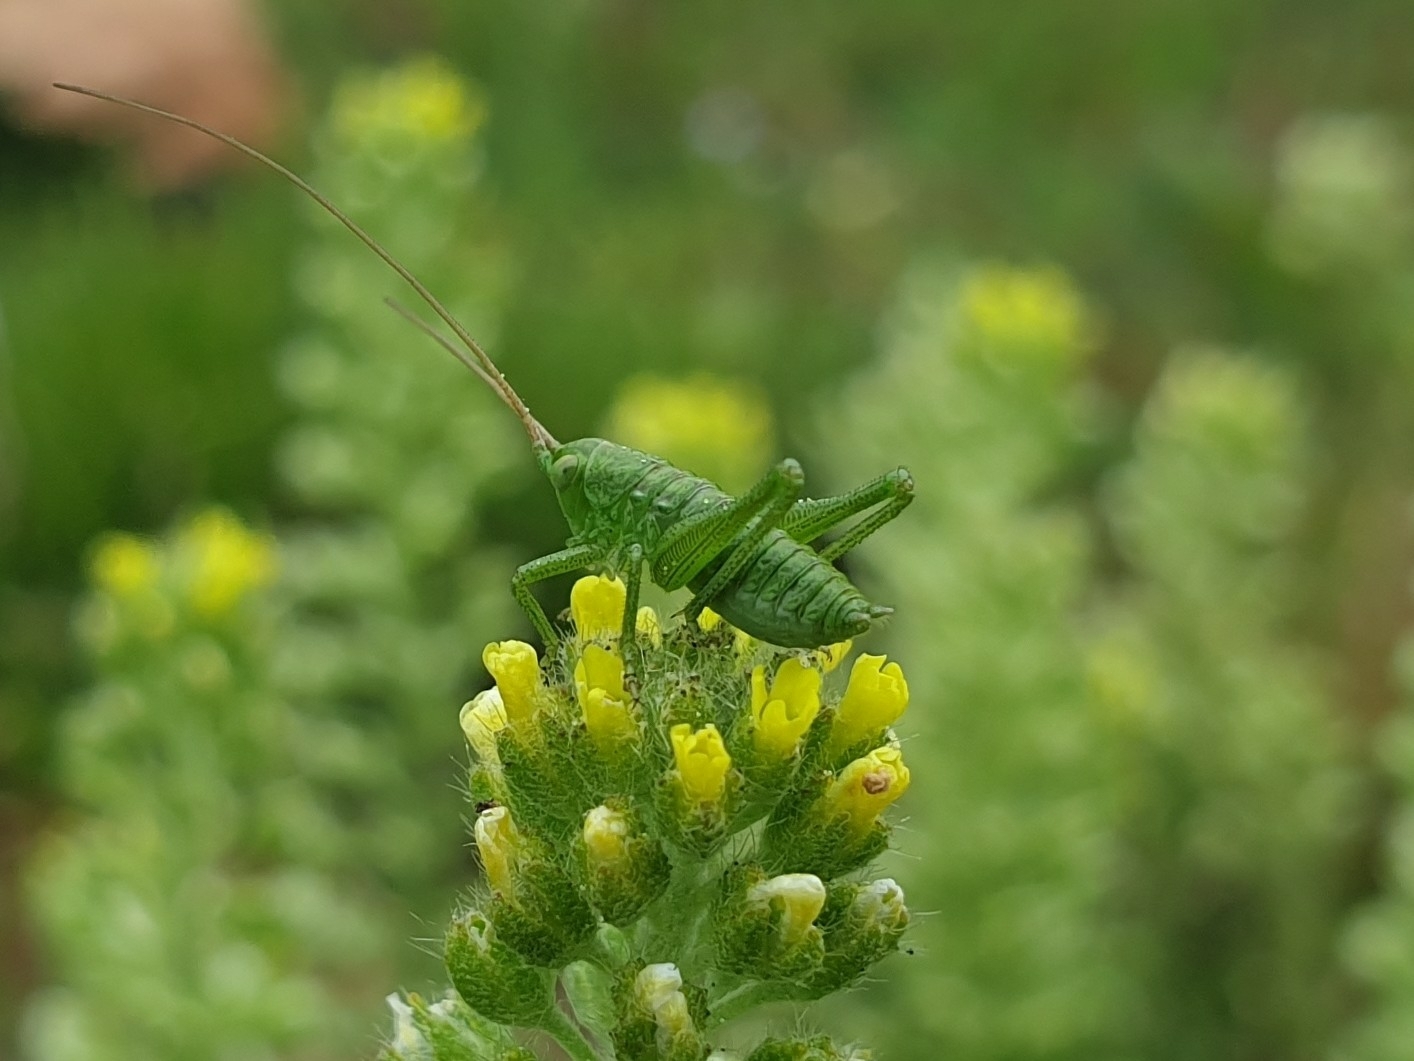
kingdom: Animalia
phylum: Arthropoda
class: Insecta
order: Orthoptera
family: Tettigoniidae
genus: Tettigonia
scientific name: Tettigonia viridissima
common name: Great green bush-cricket
